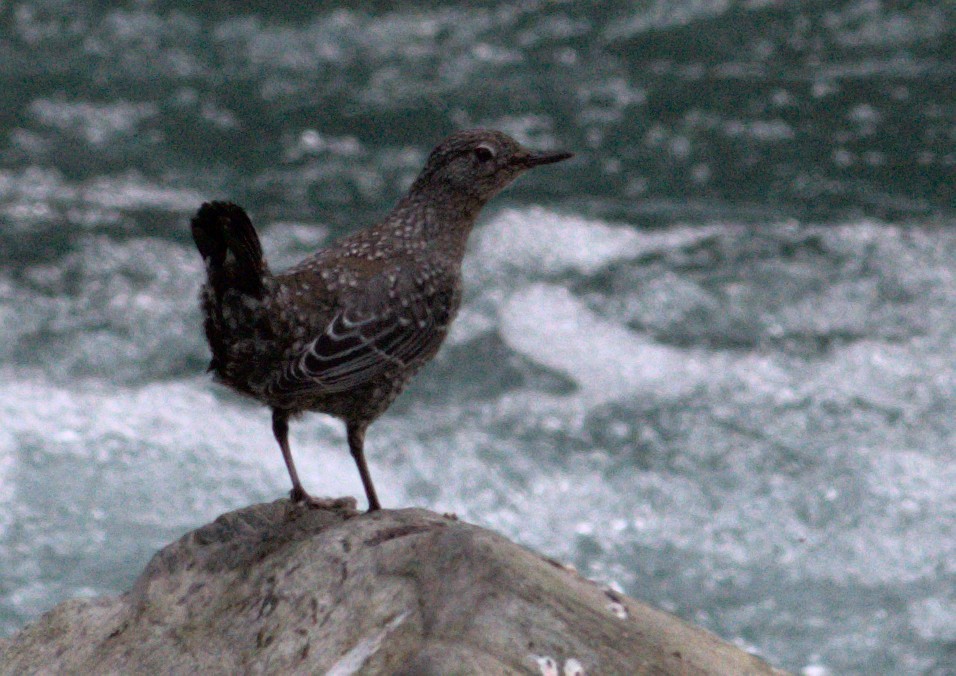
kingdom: Animalia
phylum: Chordata
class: Aves
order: Passeriformes
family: Cinclidae
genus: Cinclus
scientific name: Cinclus pallasii
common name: Brown dipper
